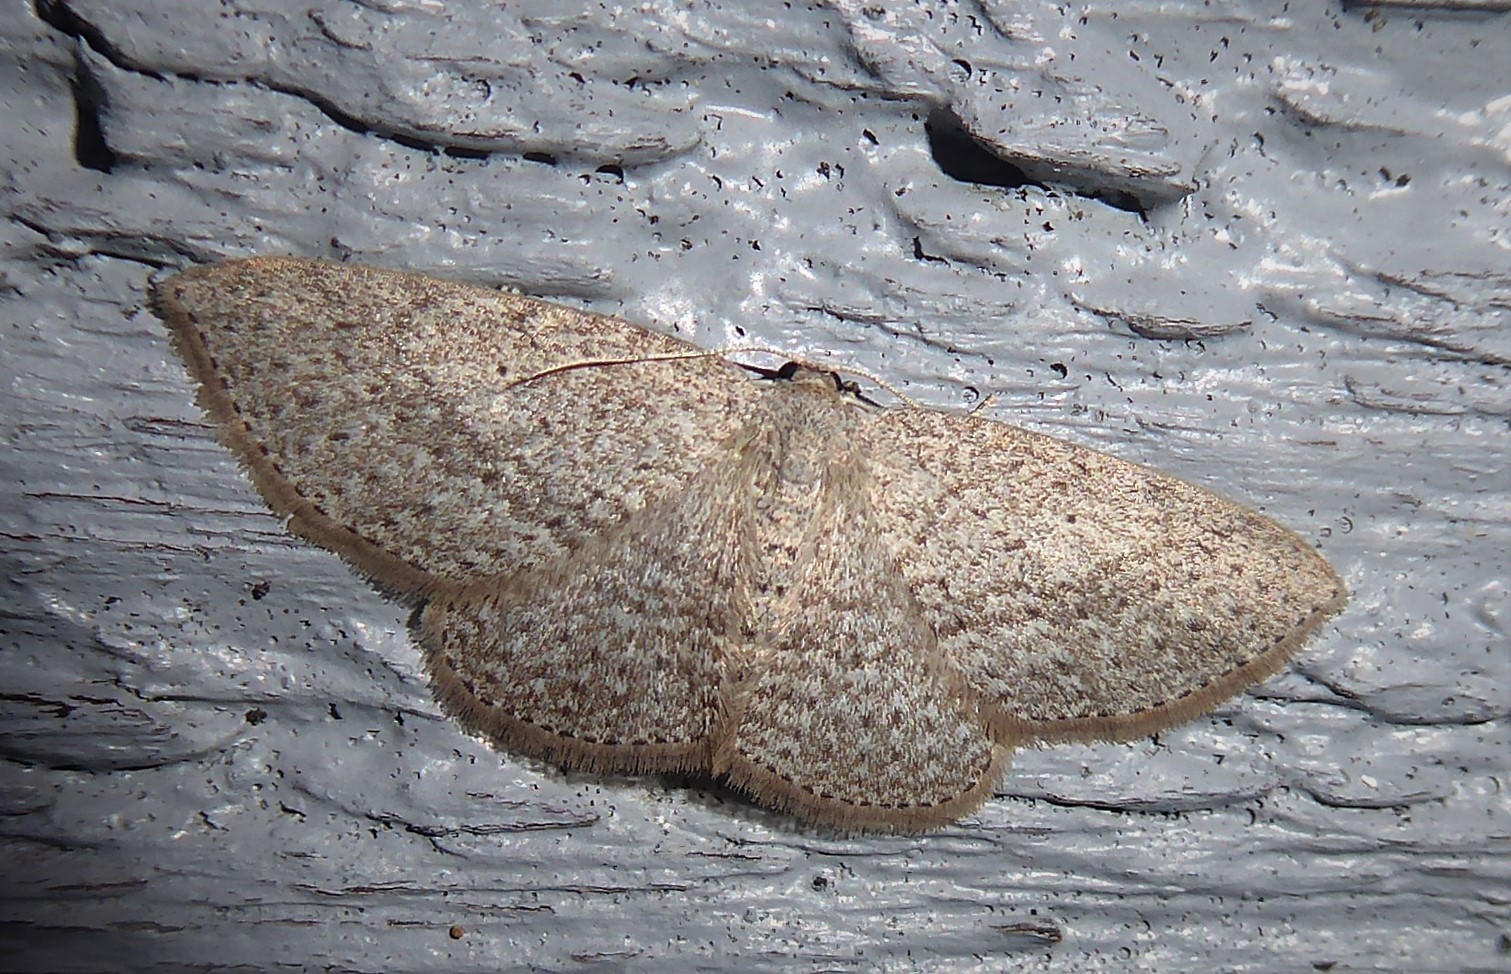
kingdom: Animalia
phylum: Arthropoda
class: Insecta
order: Lepidoptera
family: Geometridae
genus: Poecilasthena
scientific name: Poecilasthena schistaria
